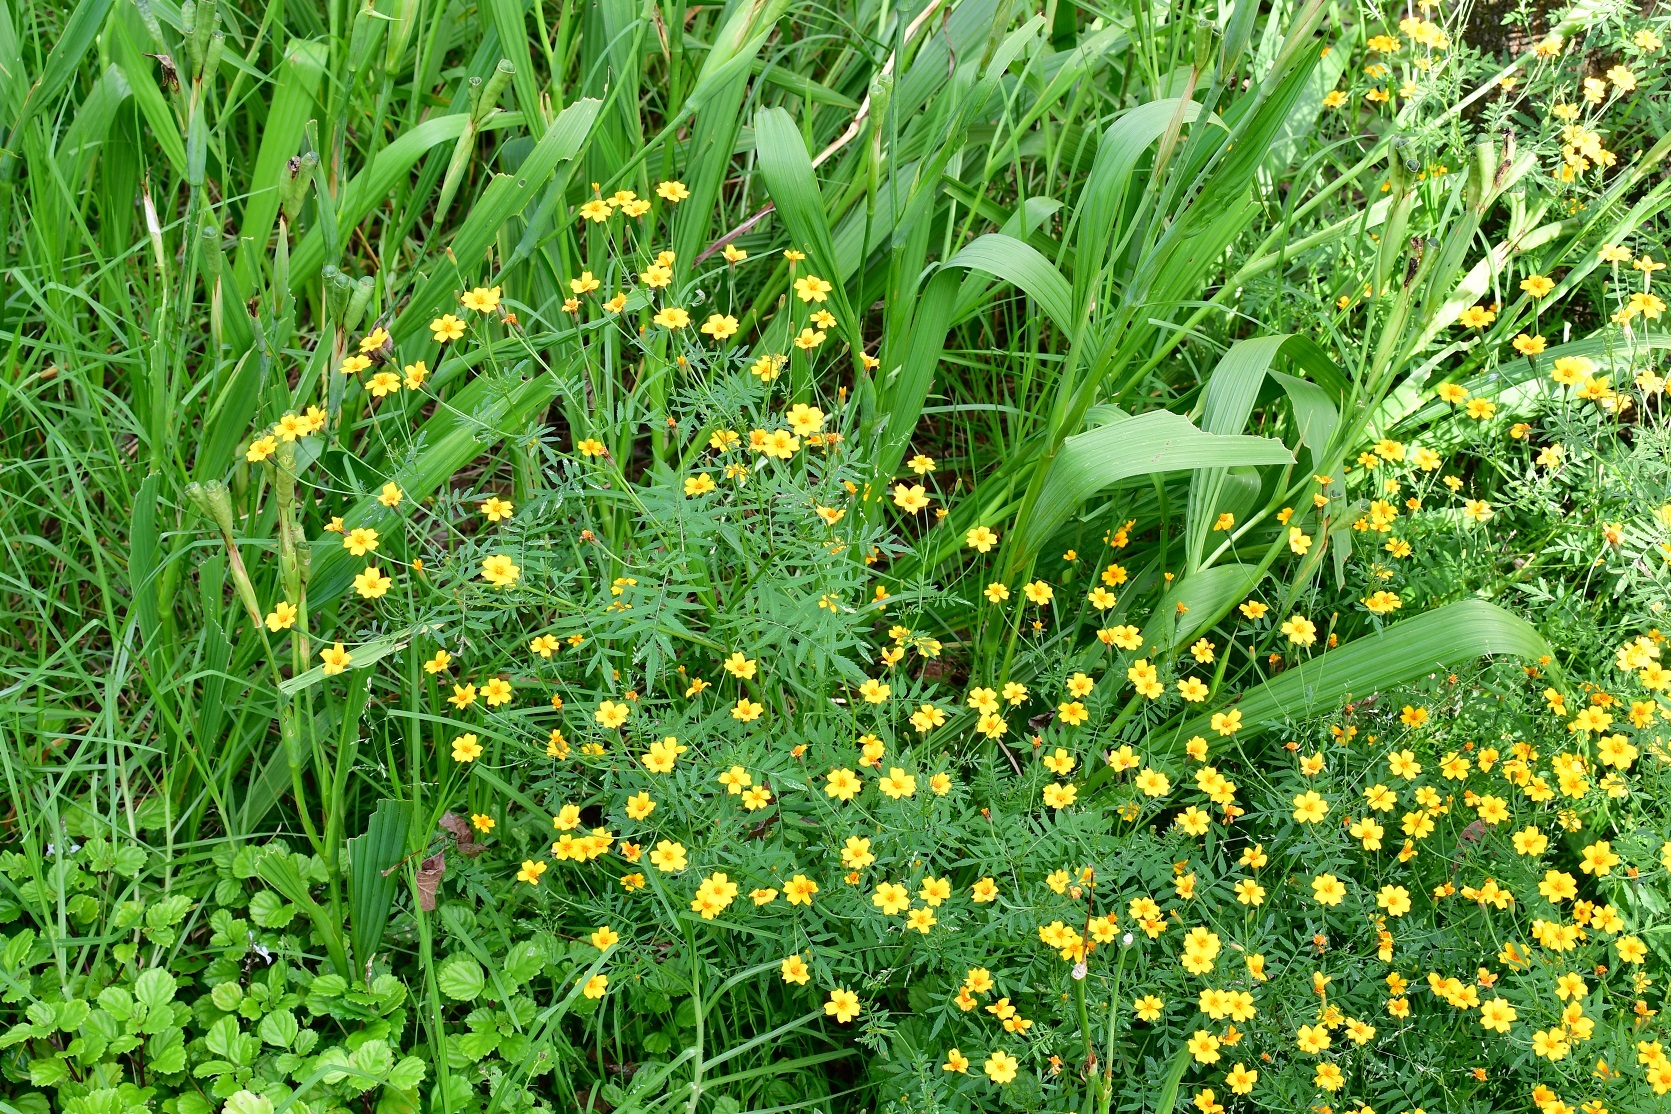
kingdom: Plantae
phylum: Tracheophyta
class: Magnoliopsida
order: Asterales
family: Asteraceae
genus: Tagetes
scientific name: Tagetes tenuifolia
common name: Signet marigold
